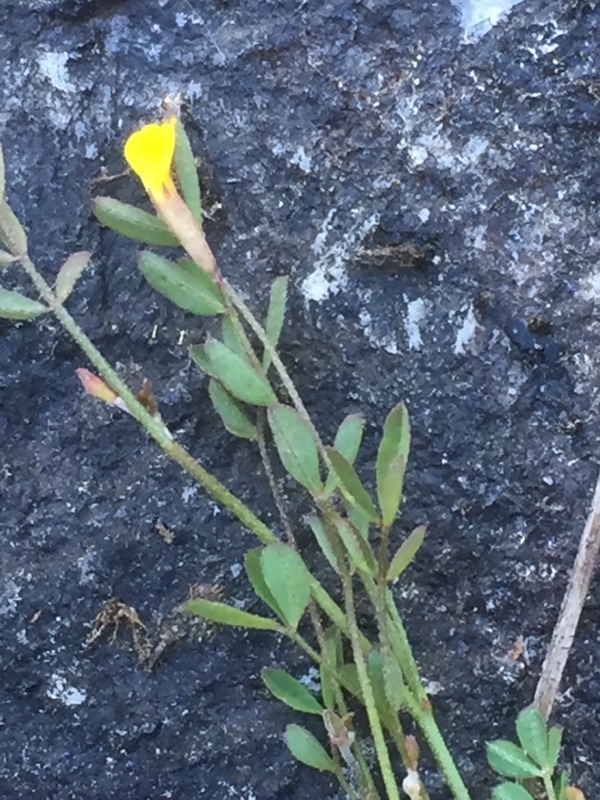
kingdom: Plantae
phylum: Tracheophyta
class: Magnoliopsida
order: Fabales
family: Fabaceae
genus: Ornithopus
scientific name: Ornithopus compressus
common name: Yellow serradella
